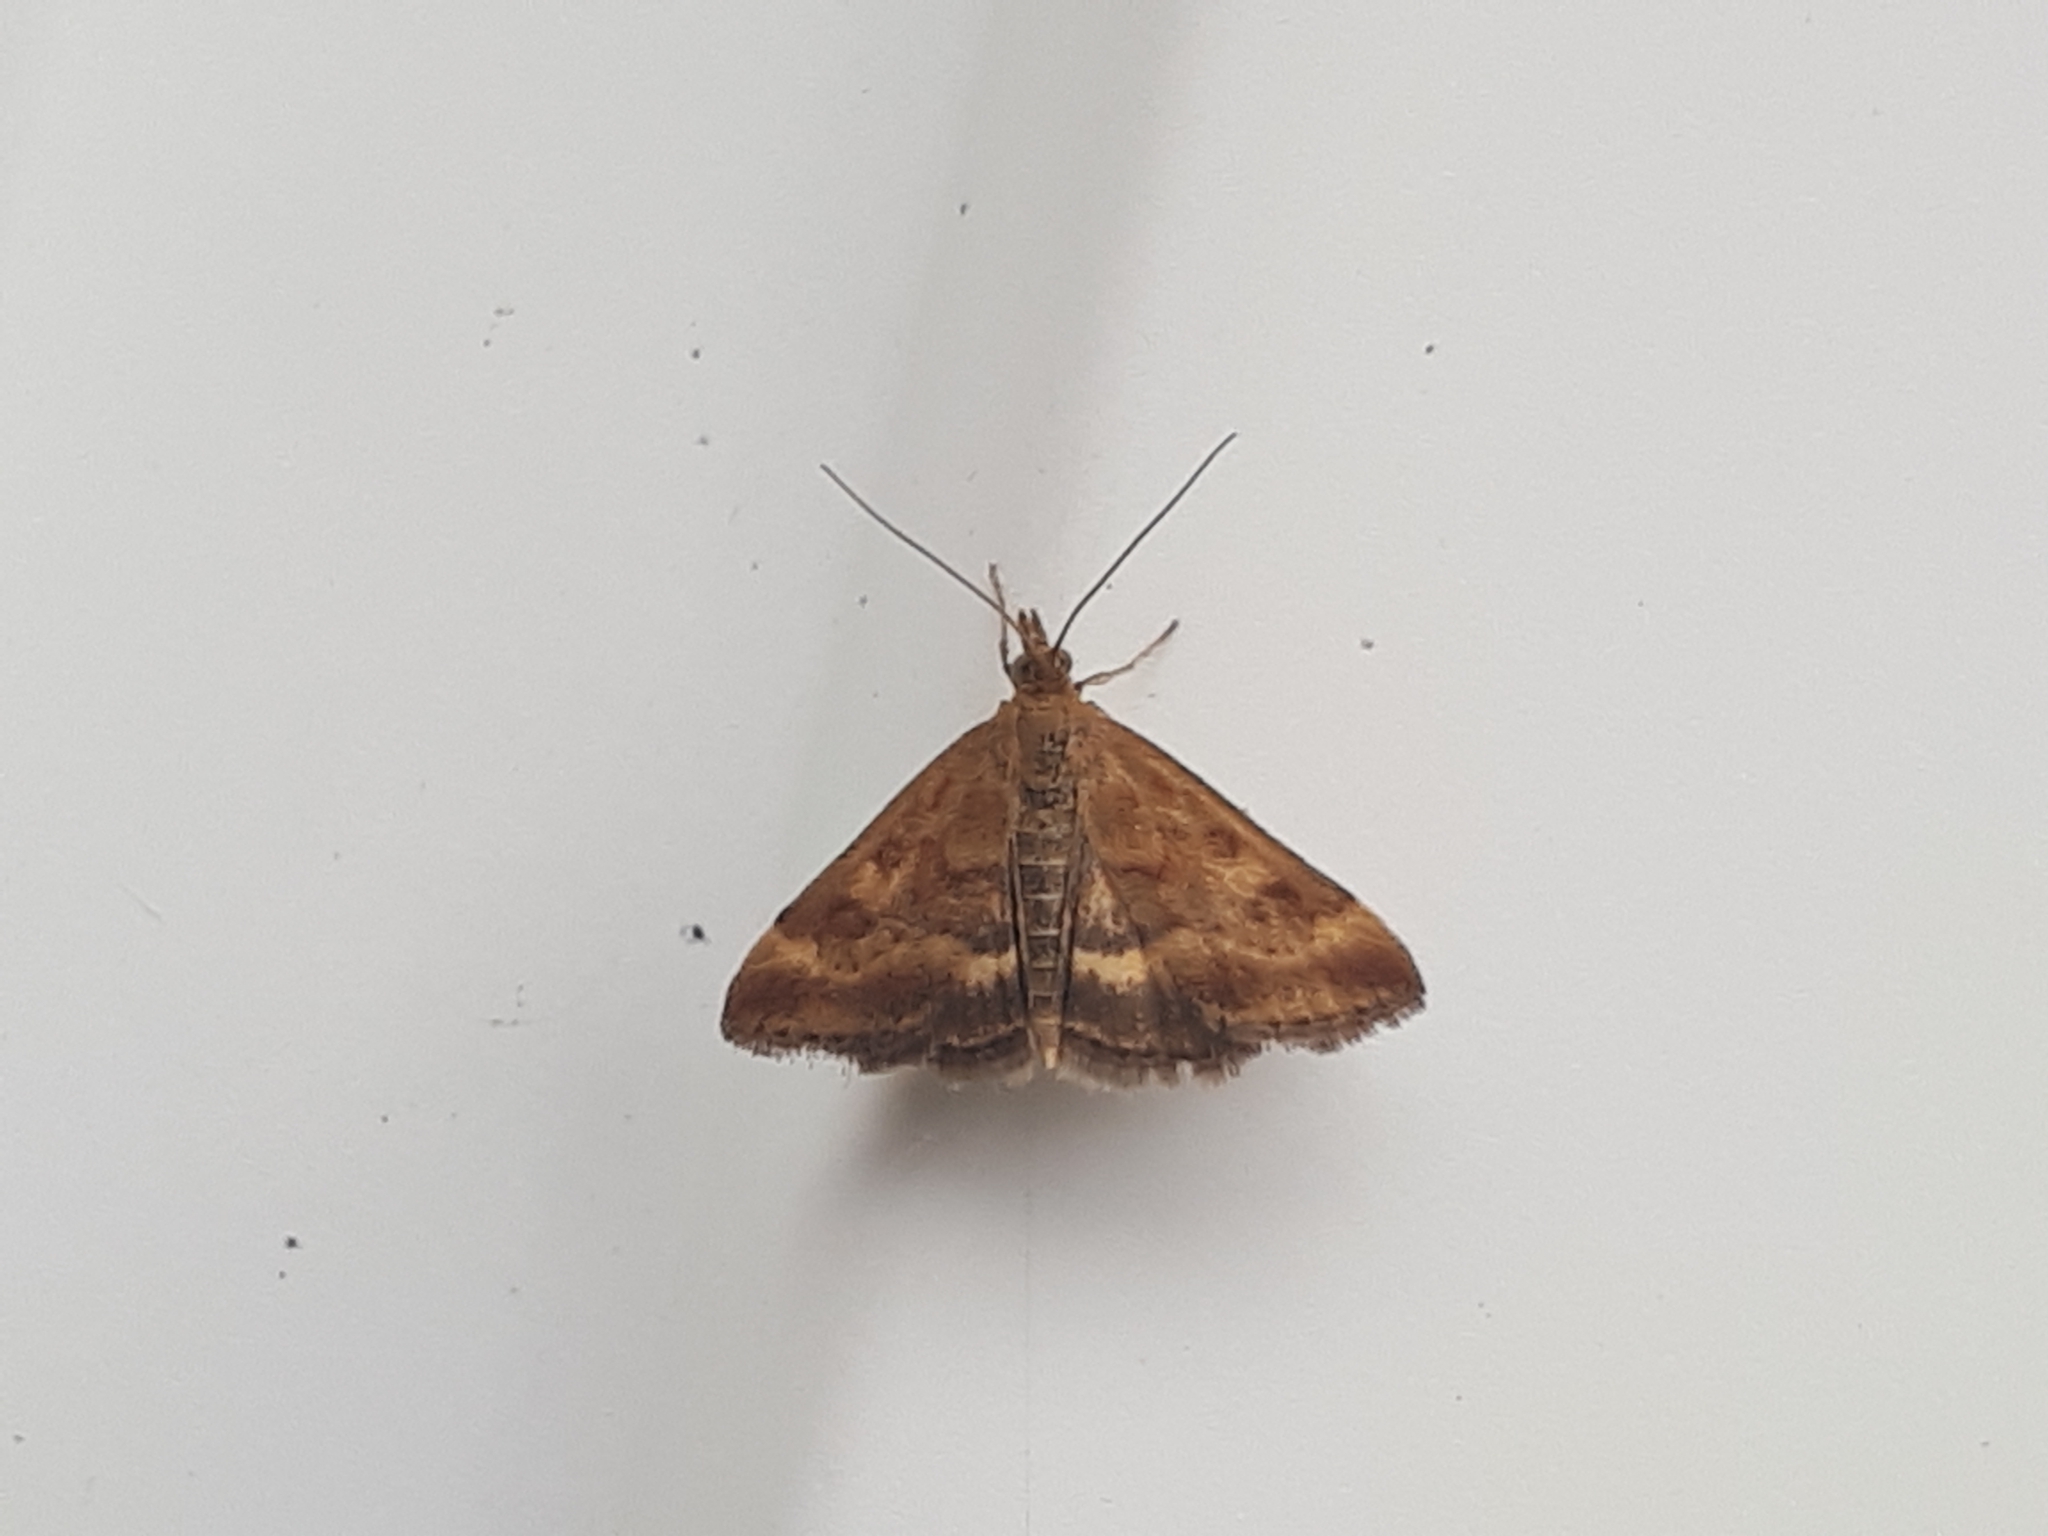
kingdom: Animalia
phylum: Arthropoda
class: Insecta
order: Lepidoptera
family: Crambidae
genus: Pyrausta
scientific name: Pyrausta despicata
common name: Straw-barred pearl
